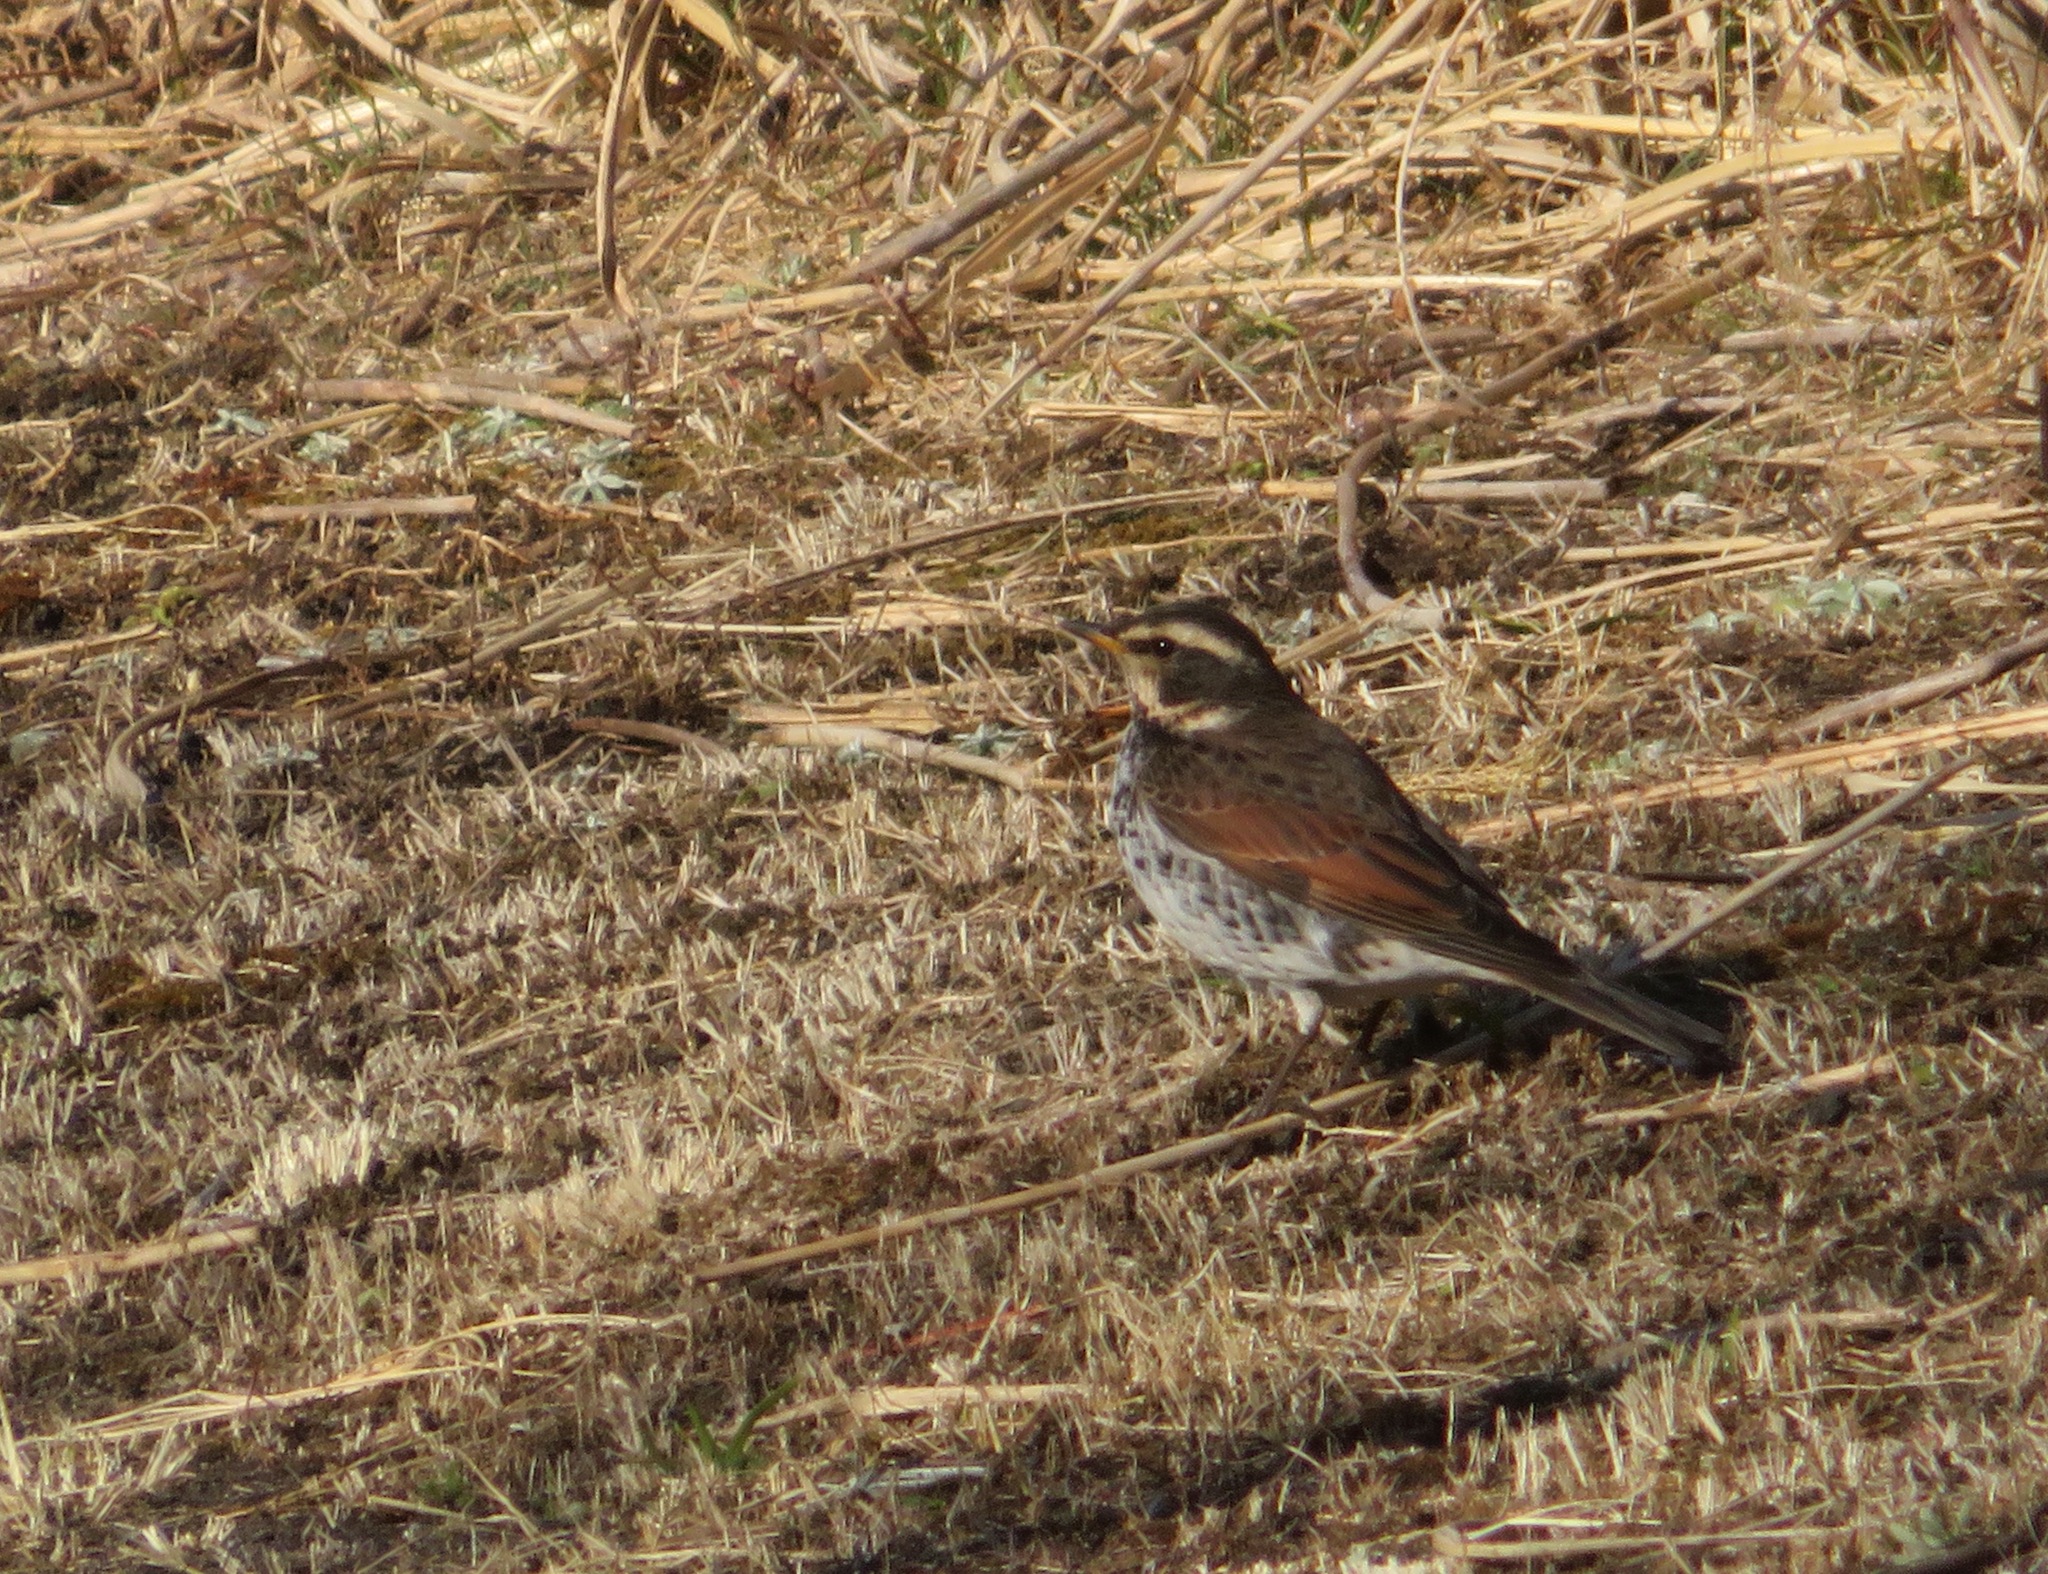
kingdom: Animalia
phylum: Chordata
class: Aves
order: Passeriformes
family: Turdidae
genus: Turdus
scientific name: Turdus eunomus
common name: Dusky thrush
